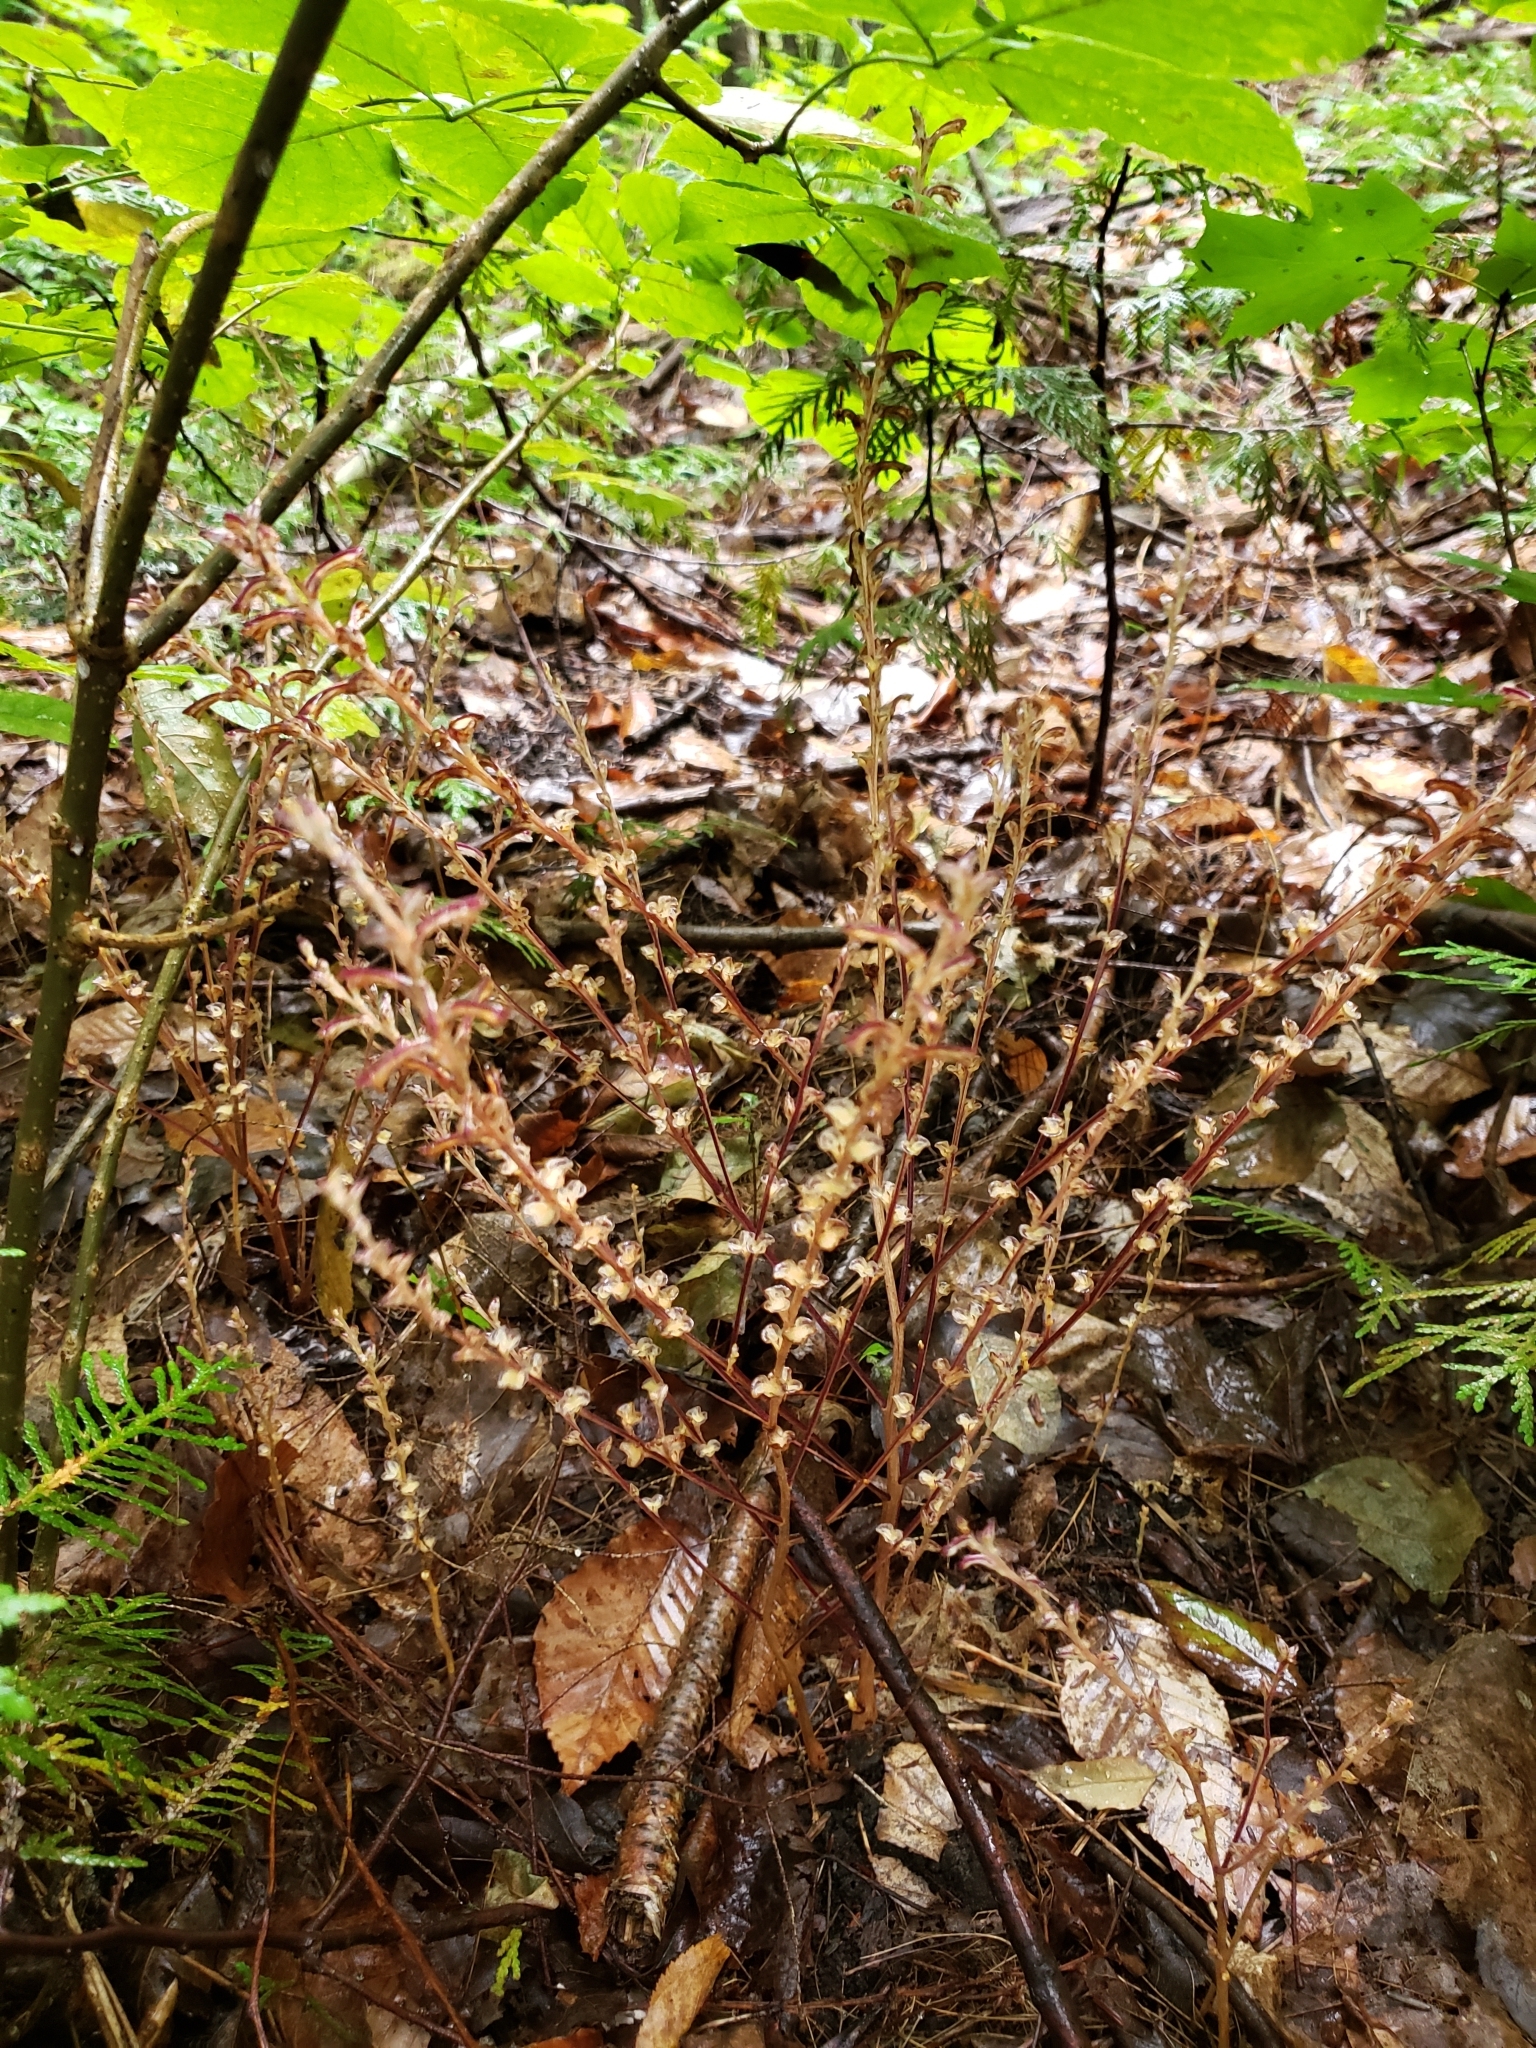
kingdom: Plantae
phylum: Tracheophyta
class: Magnoliopsida
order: Lamiales
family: Orobanchaceae
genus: Epifagus
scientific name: Epifagus virginiana
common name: Beechdrops
